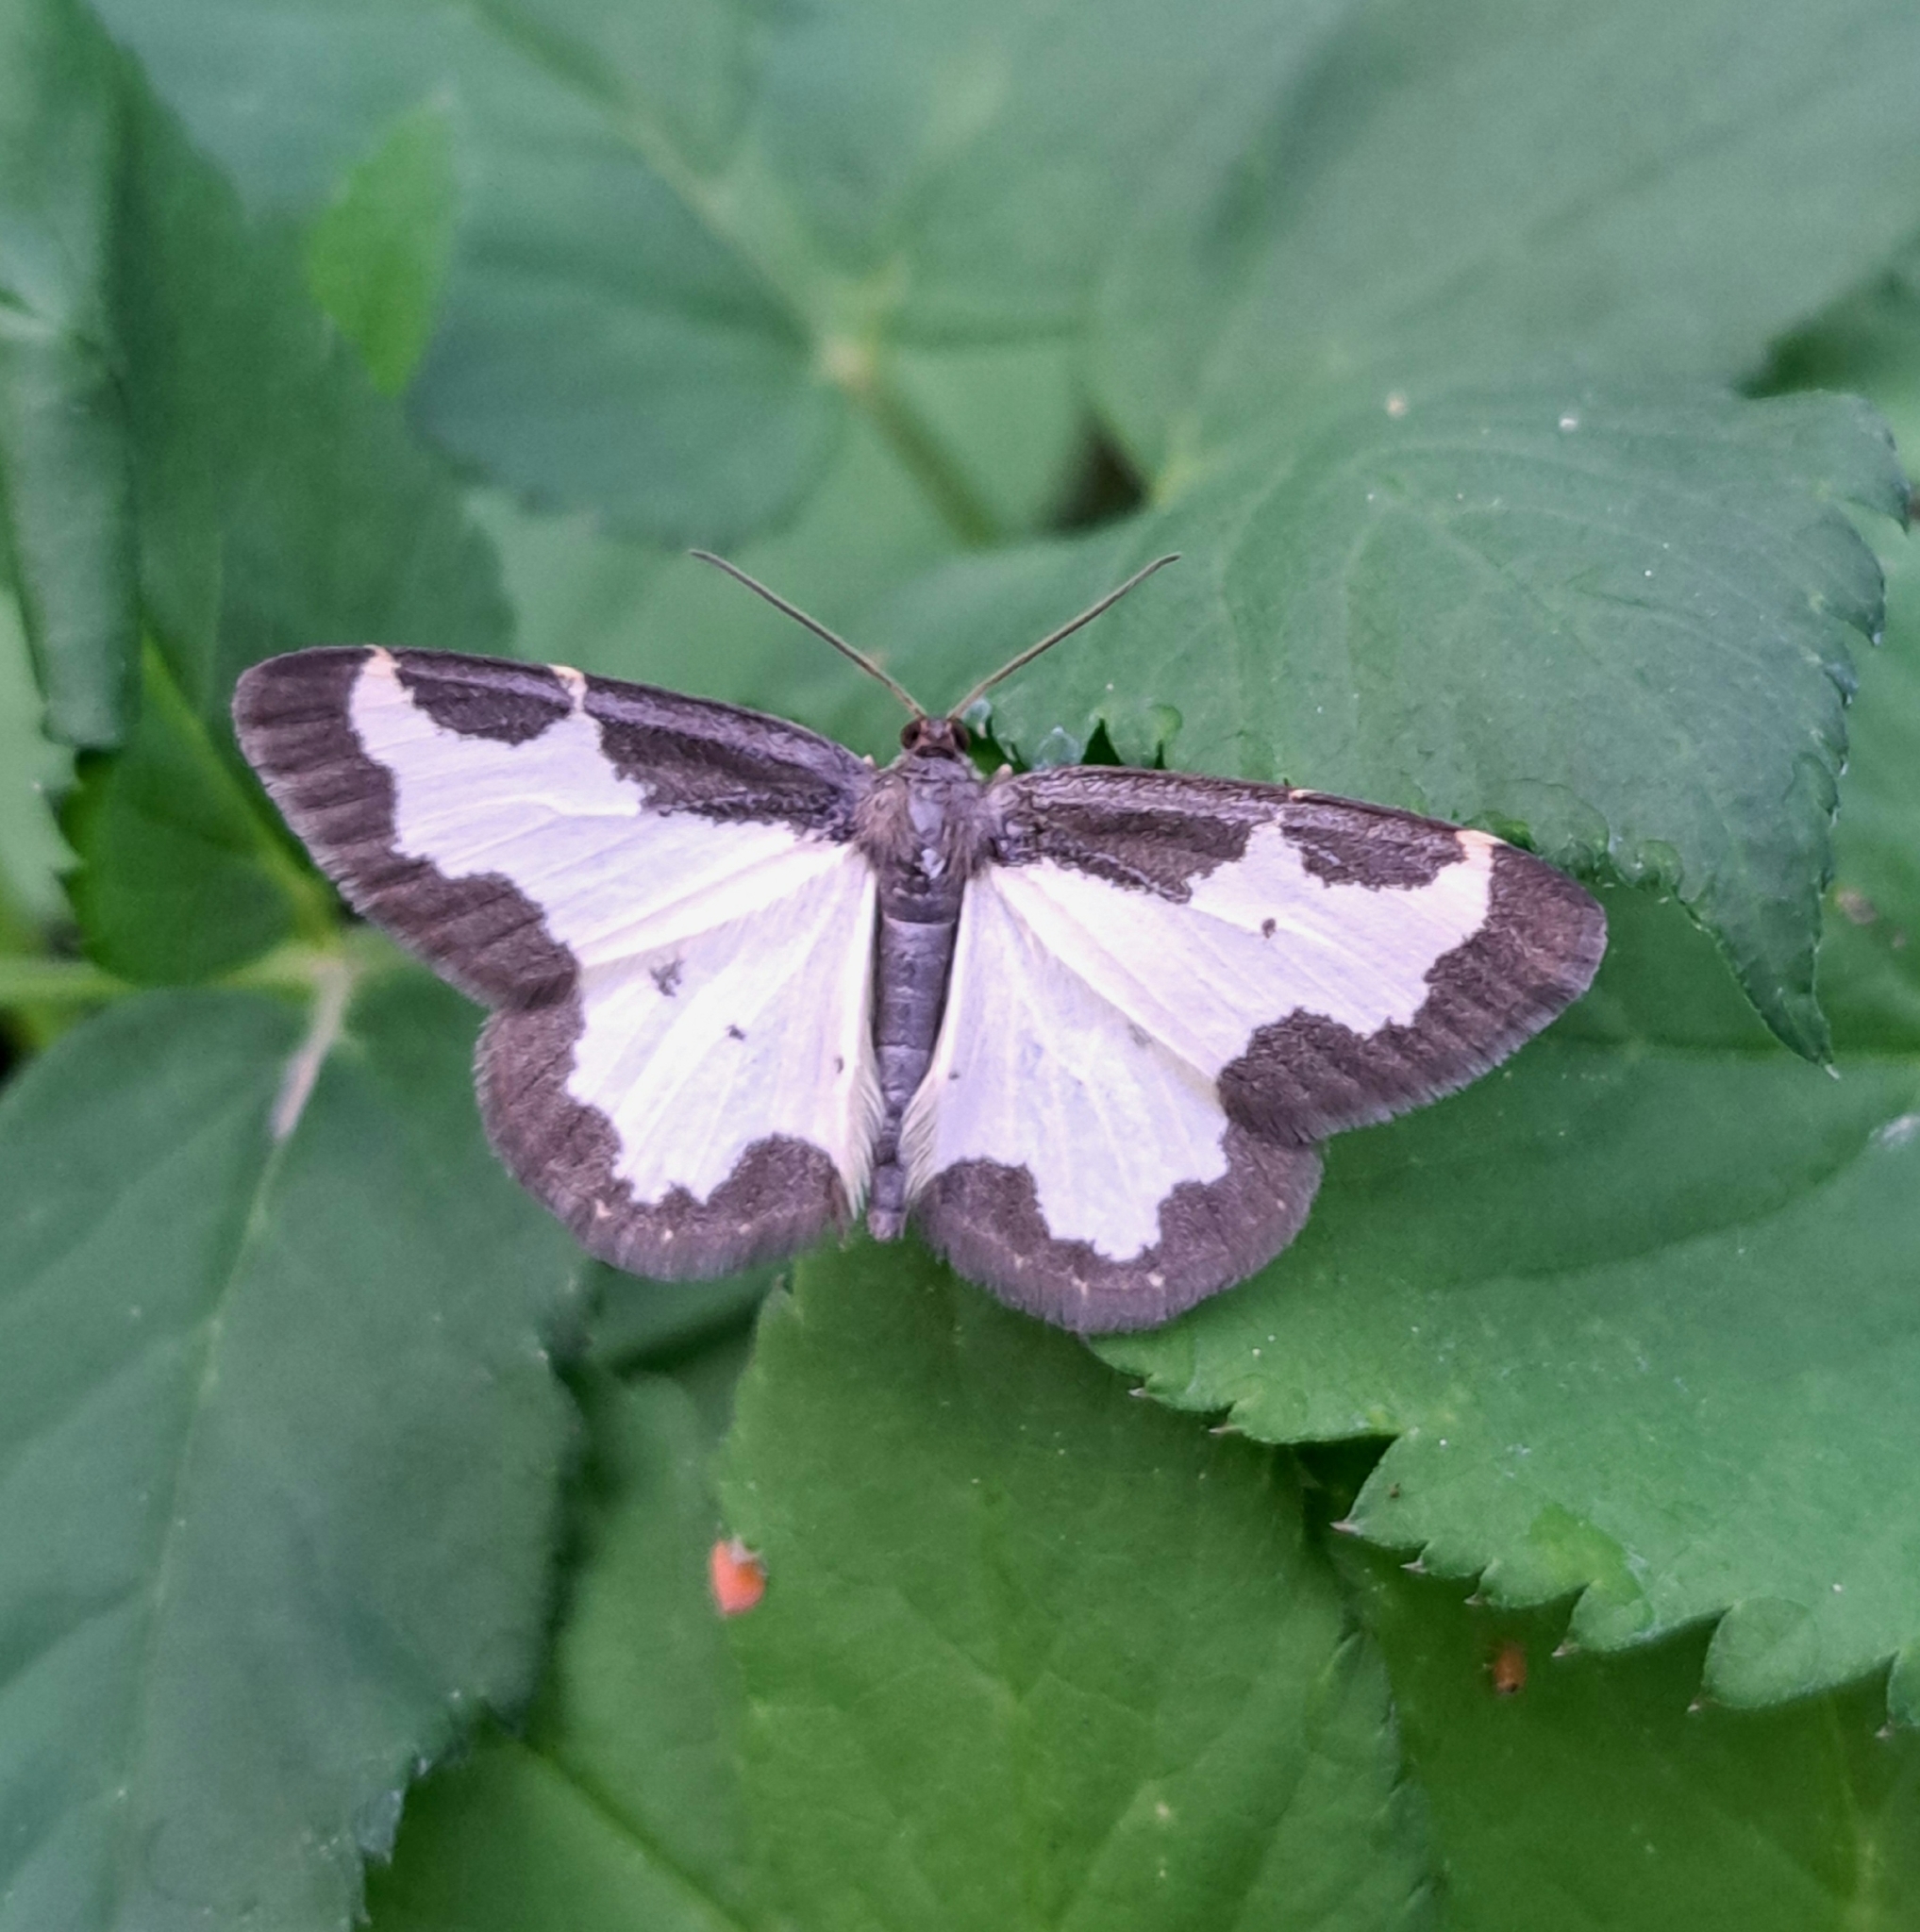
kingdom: Animalia
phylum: Arthropoda
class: Insecta
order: Lepidoptera
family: Geometridae
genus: Lomaspilis
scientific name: Lomaspilis marginata
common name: Clouded border
